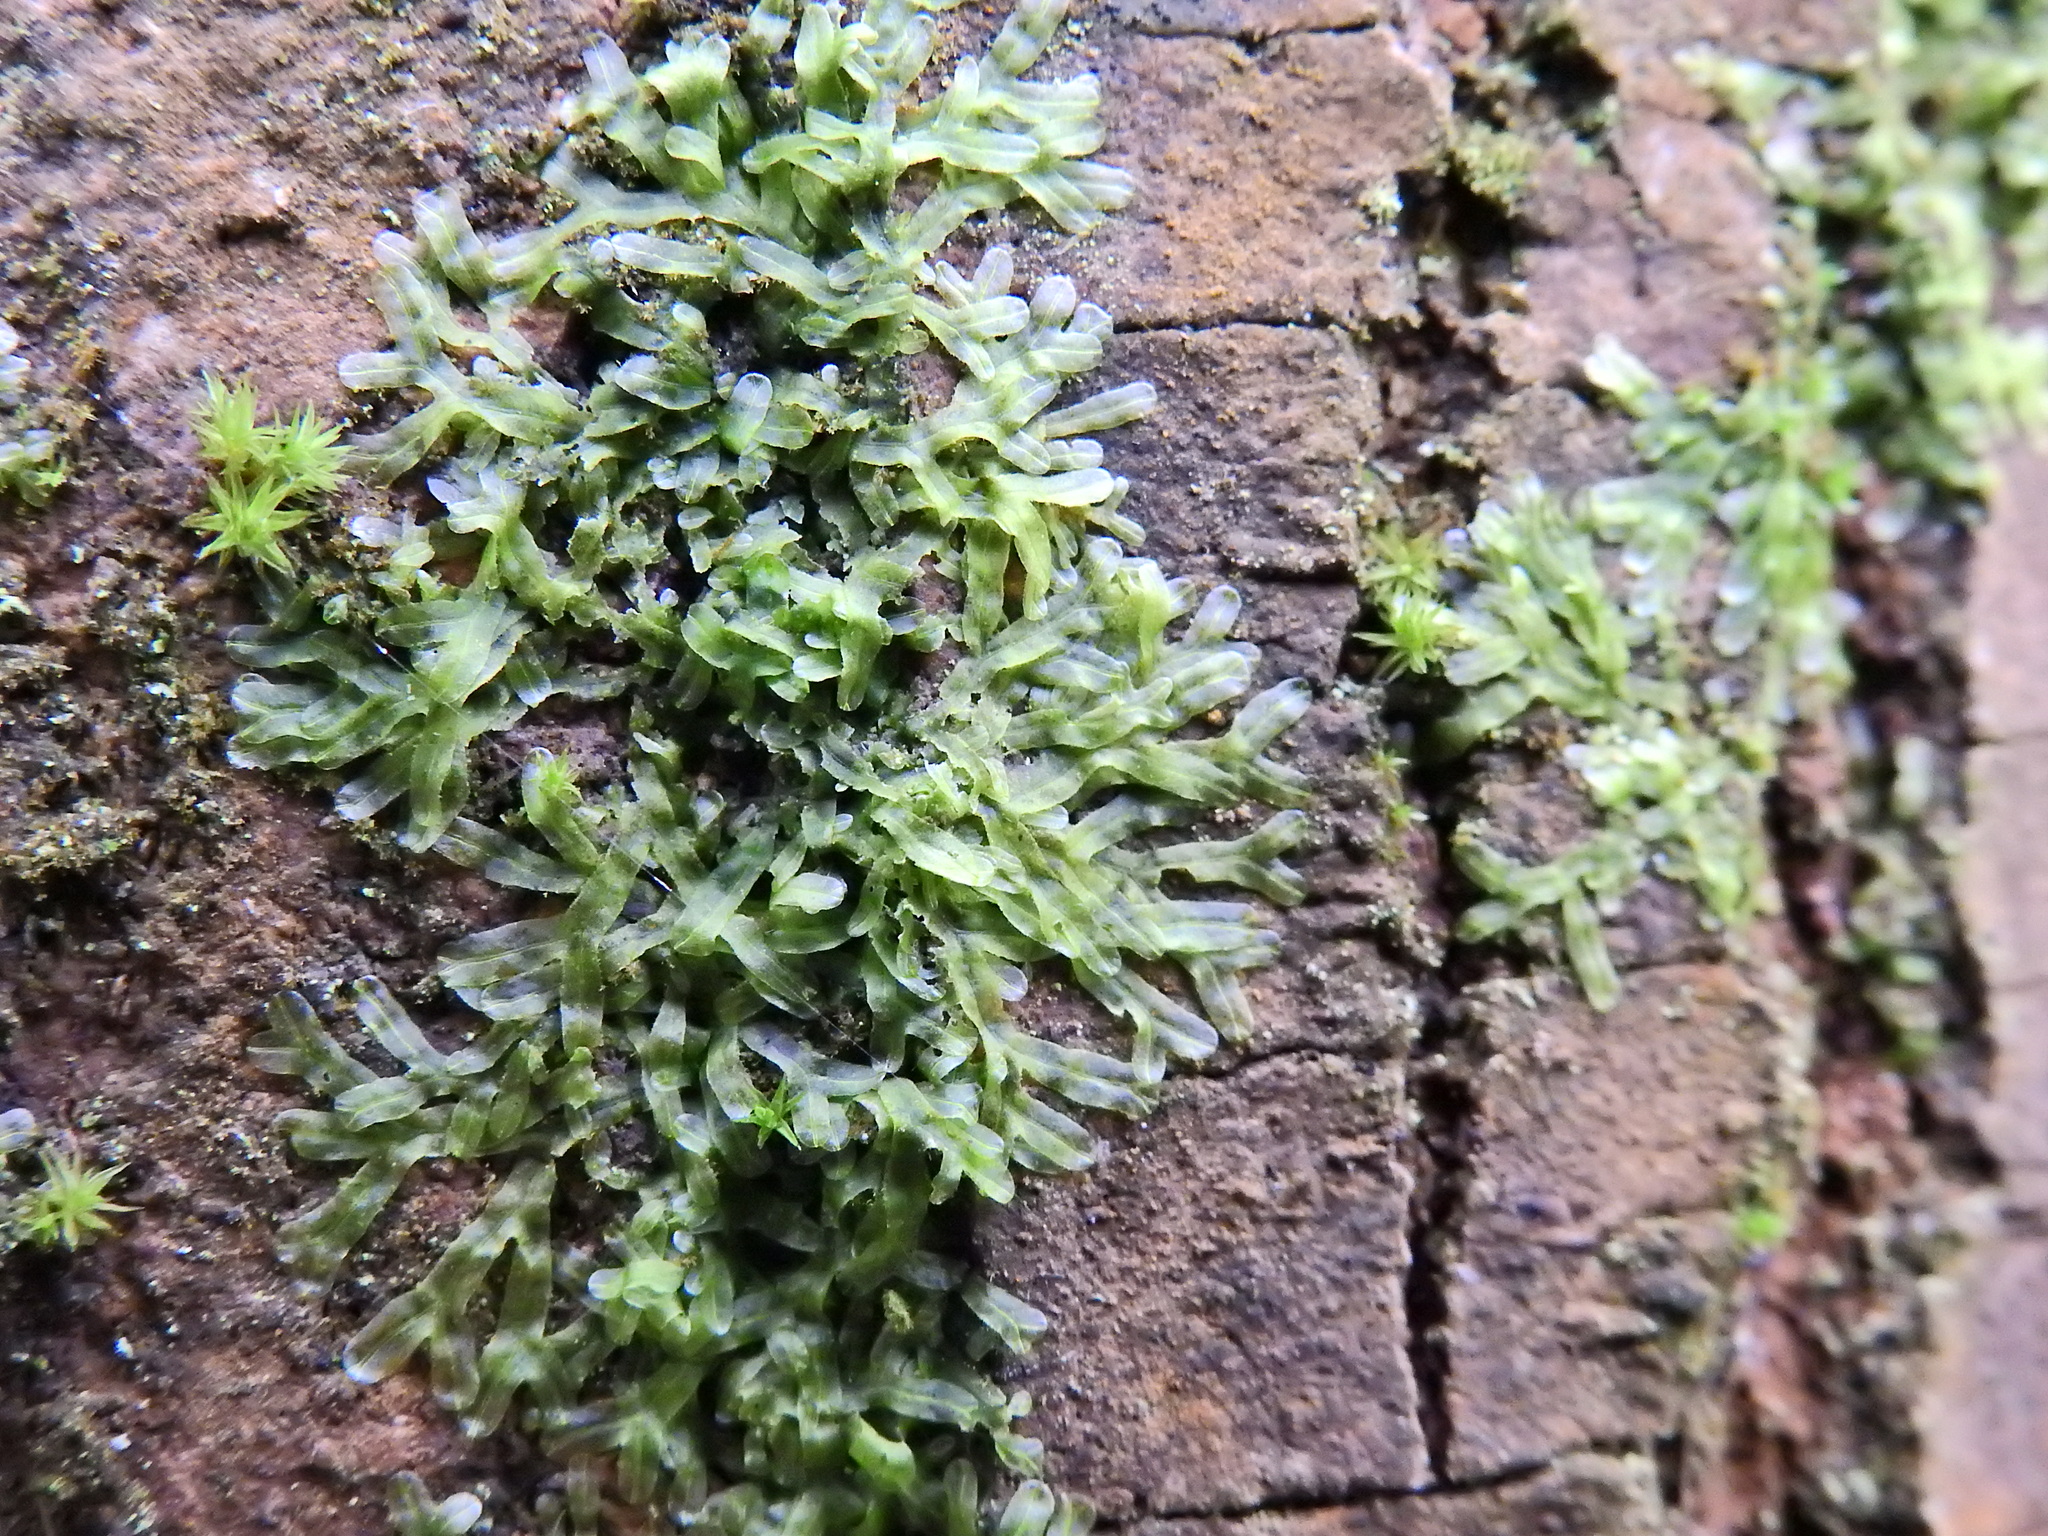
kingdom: Plantae
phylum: Marchantiophyta
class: Jungermanniopsida
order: Metzgeriales
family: Metzgeriaceae
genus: Metzgeria
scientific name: Metzgeria furcata
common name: Forked veilwort
